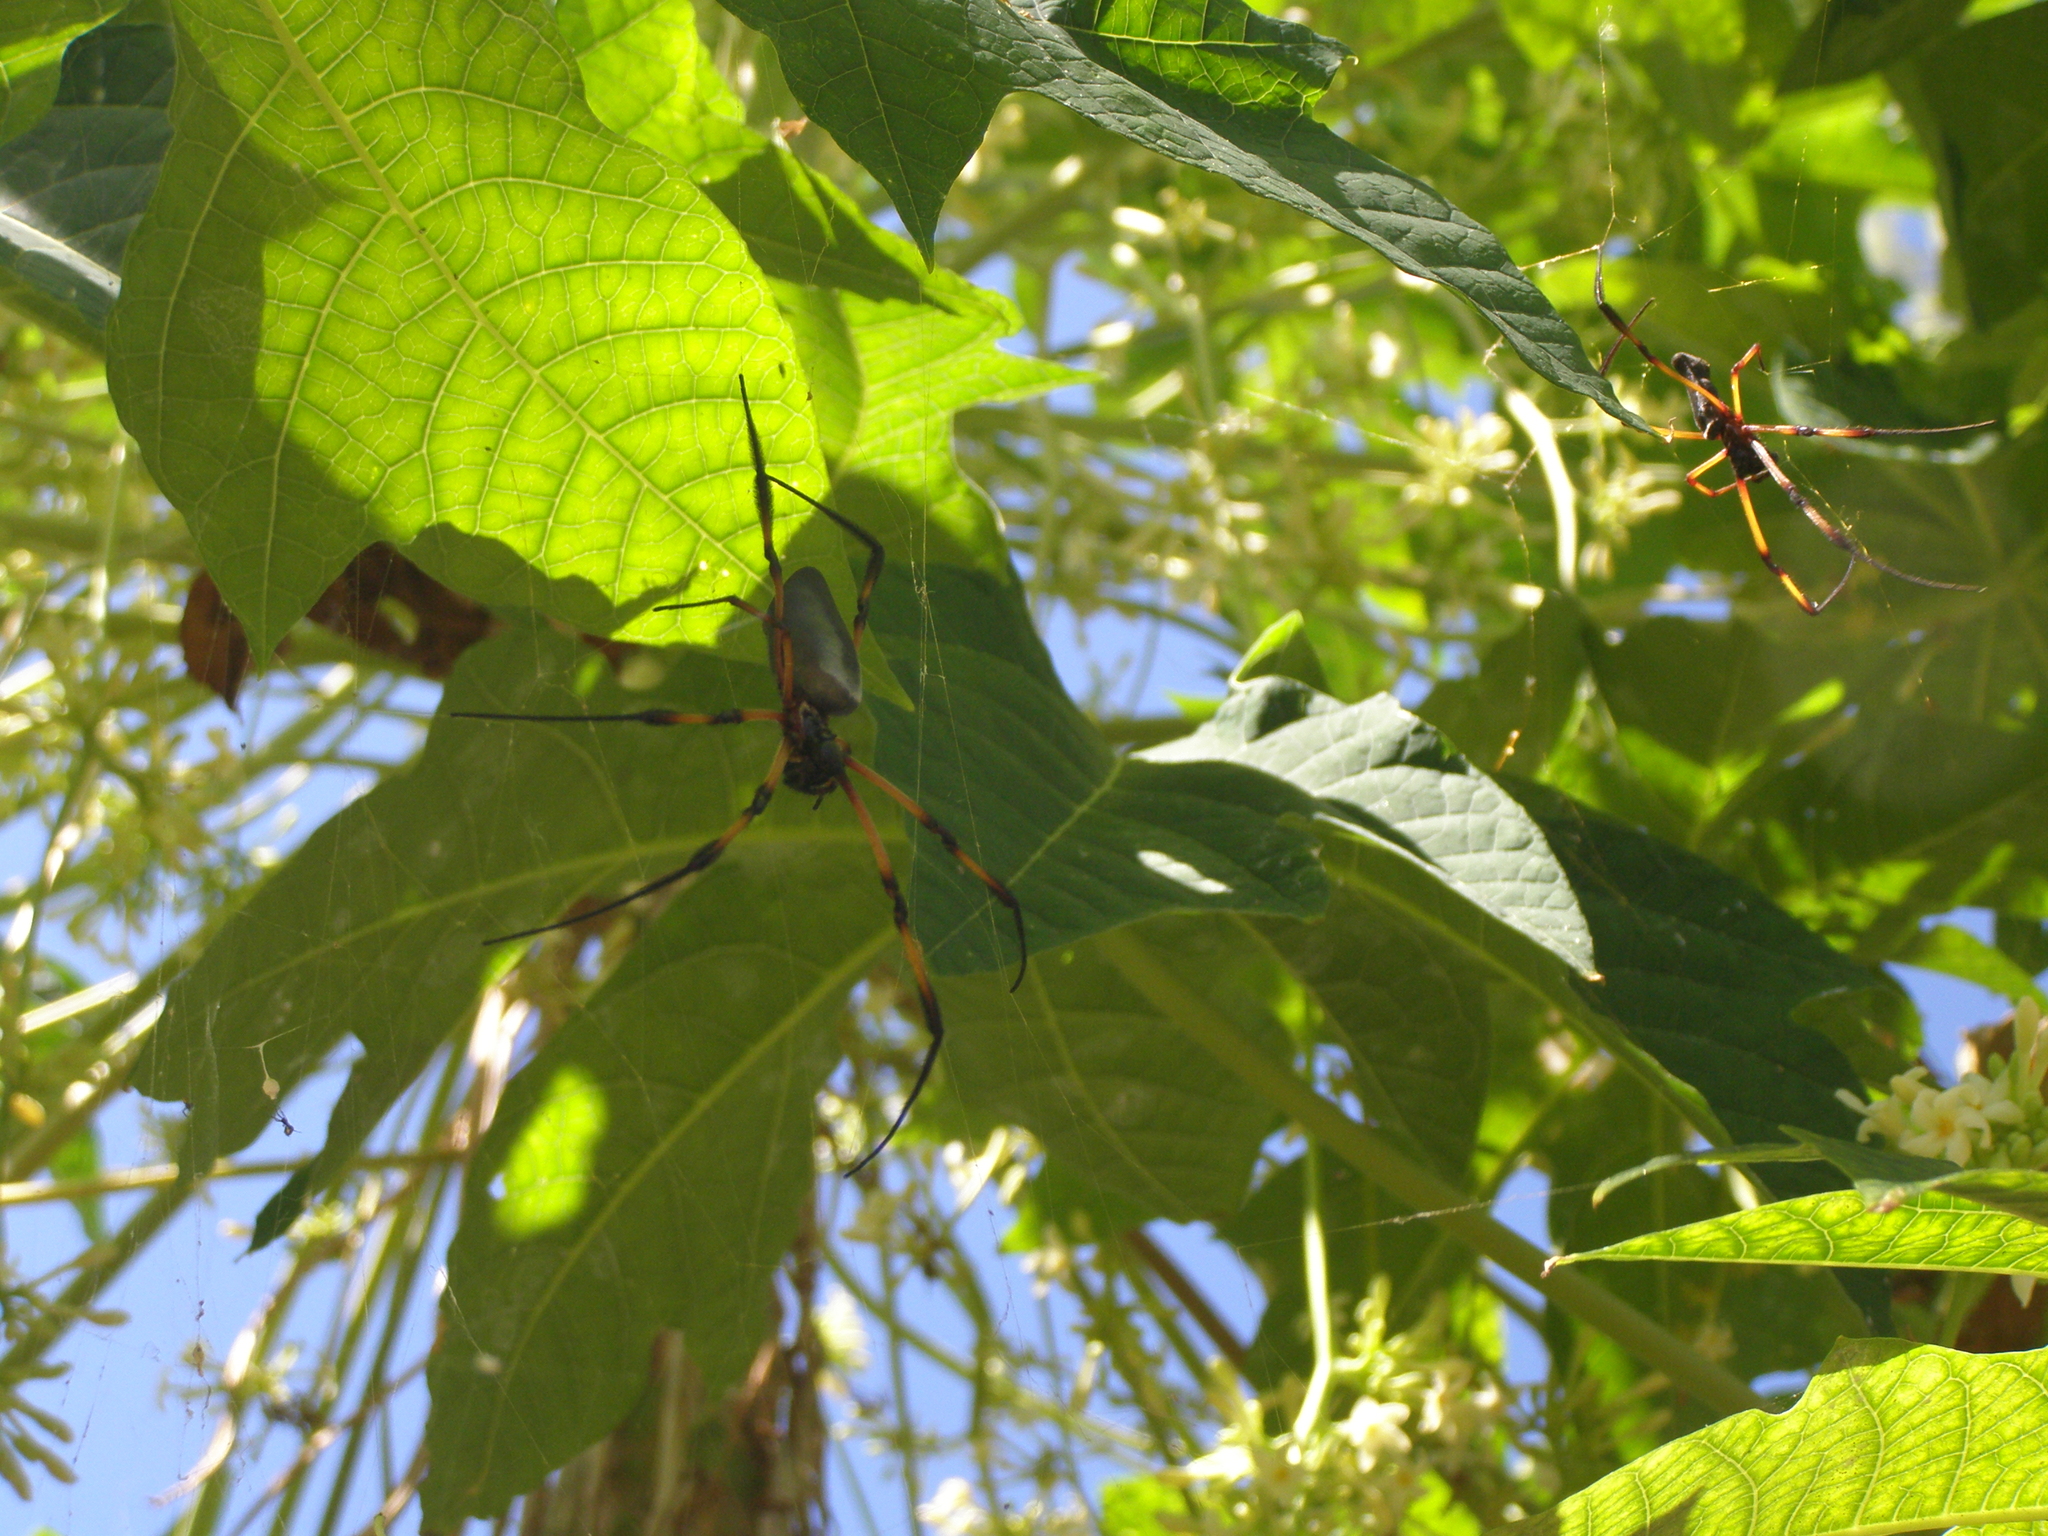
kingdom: Animalia
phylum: Arthropoda
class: Arachnida
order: Araneae
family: Araneidae
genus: Trichonephila
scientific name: Trichonephila inaurata
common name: Red-legged golden orb weaver
